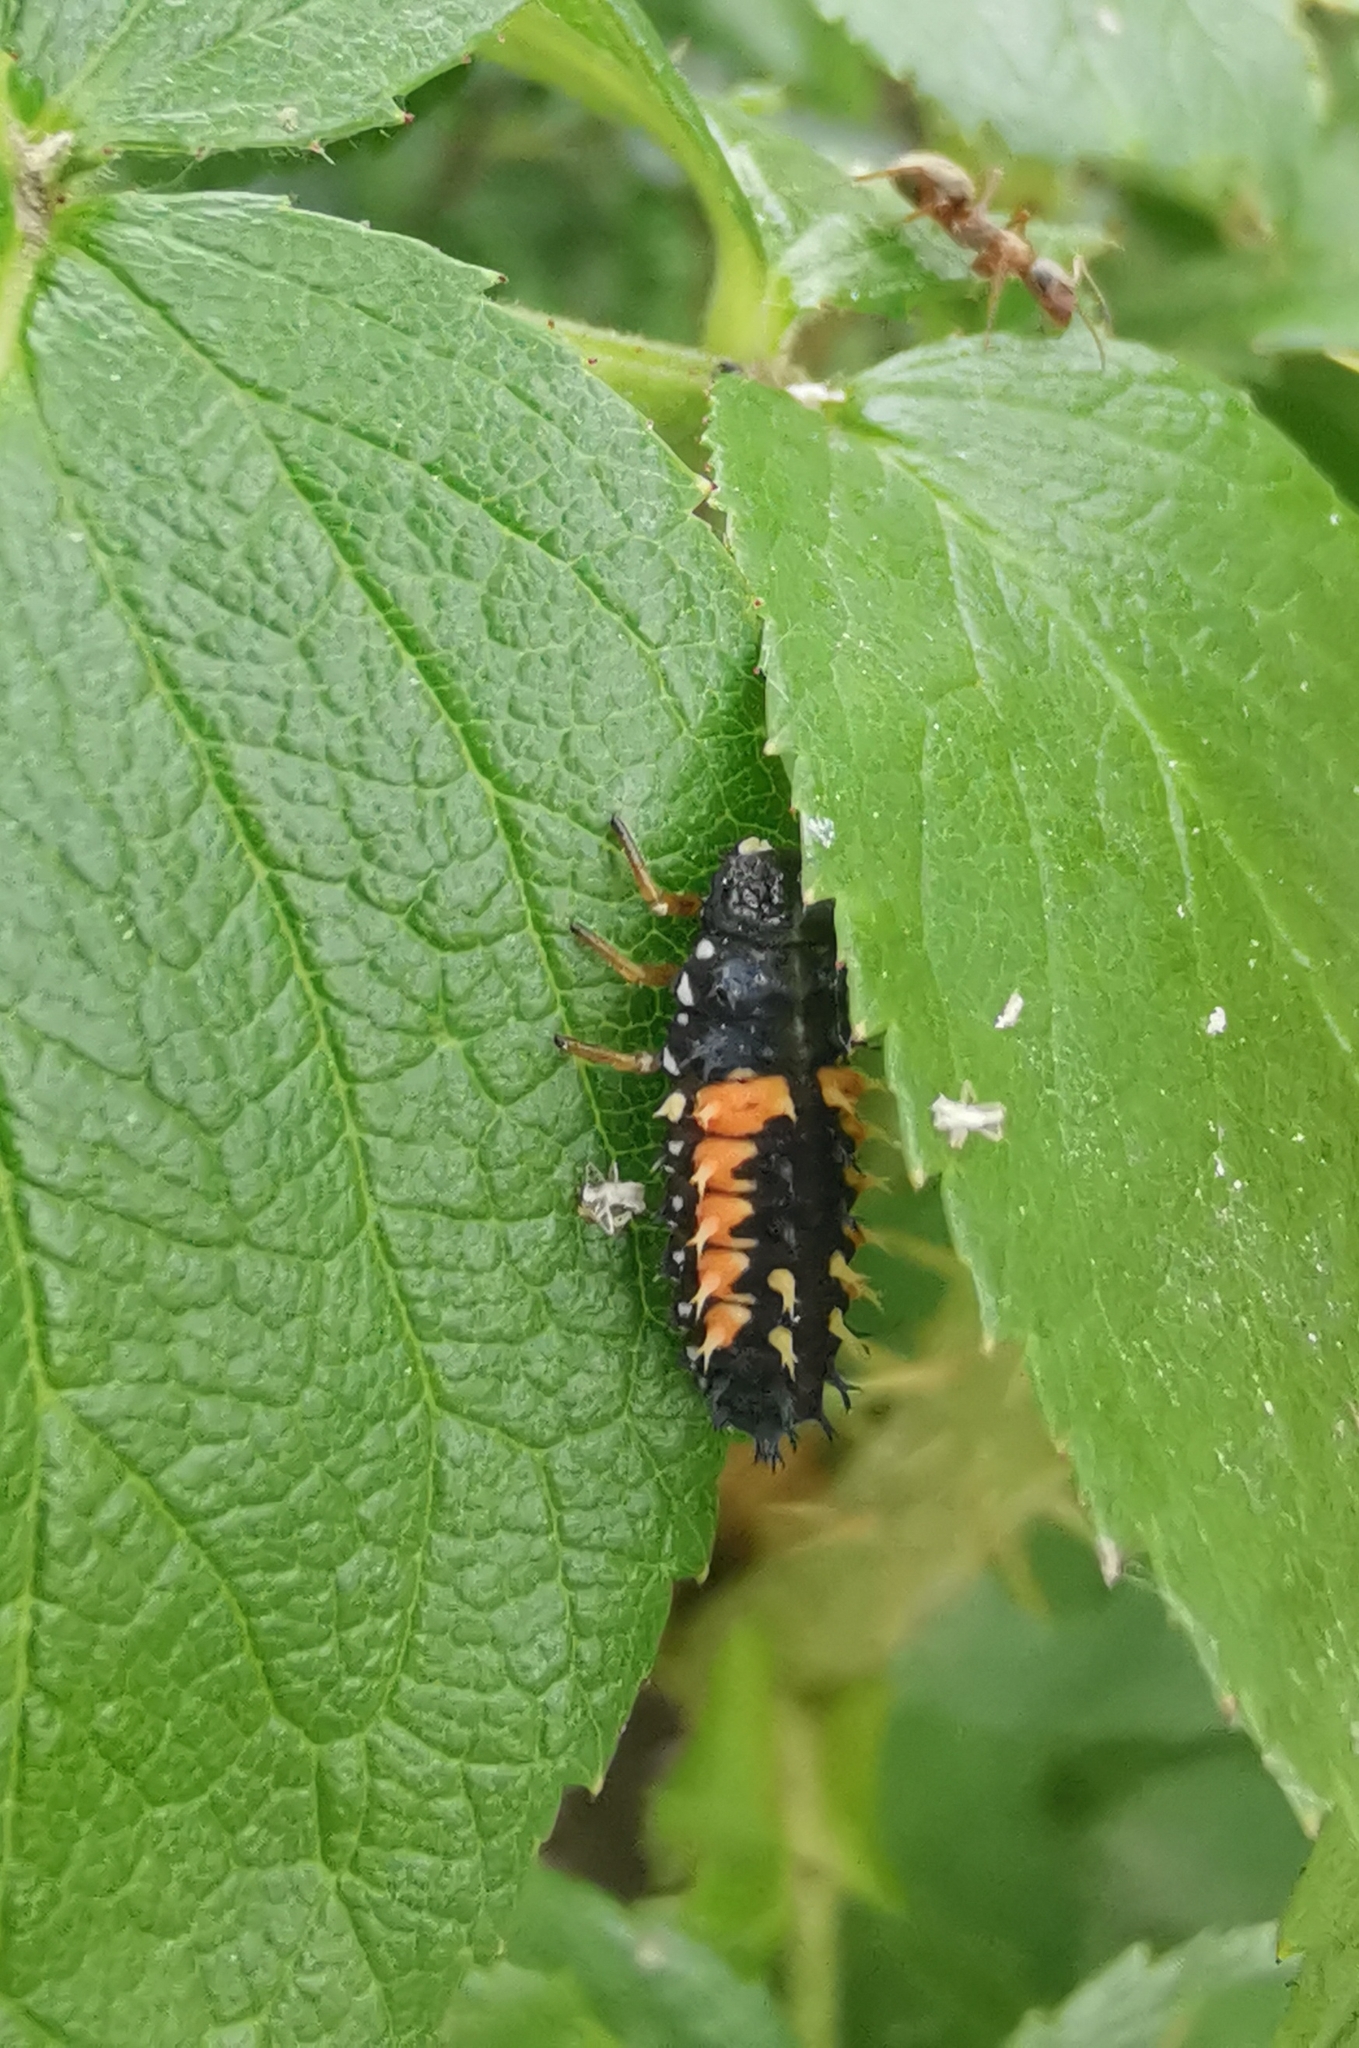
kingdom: Animalia
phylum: Arthropoda
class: Insecta
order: Coleoptera
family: Coccinellidae
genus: Harmonia
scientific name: Harmonia axyridis
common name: Harlequin ladybird
